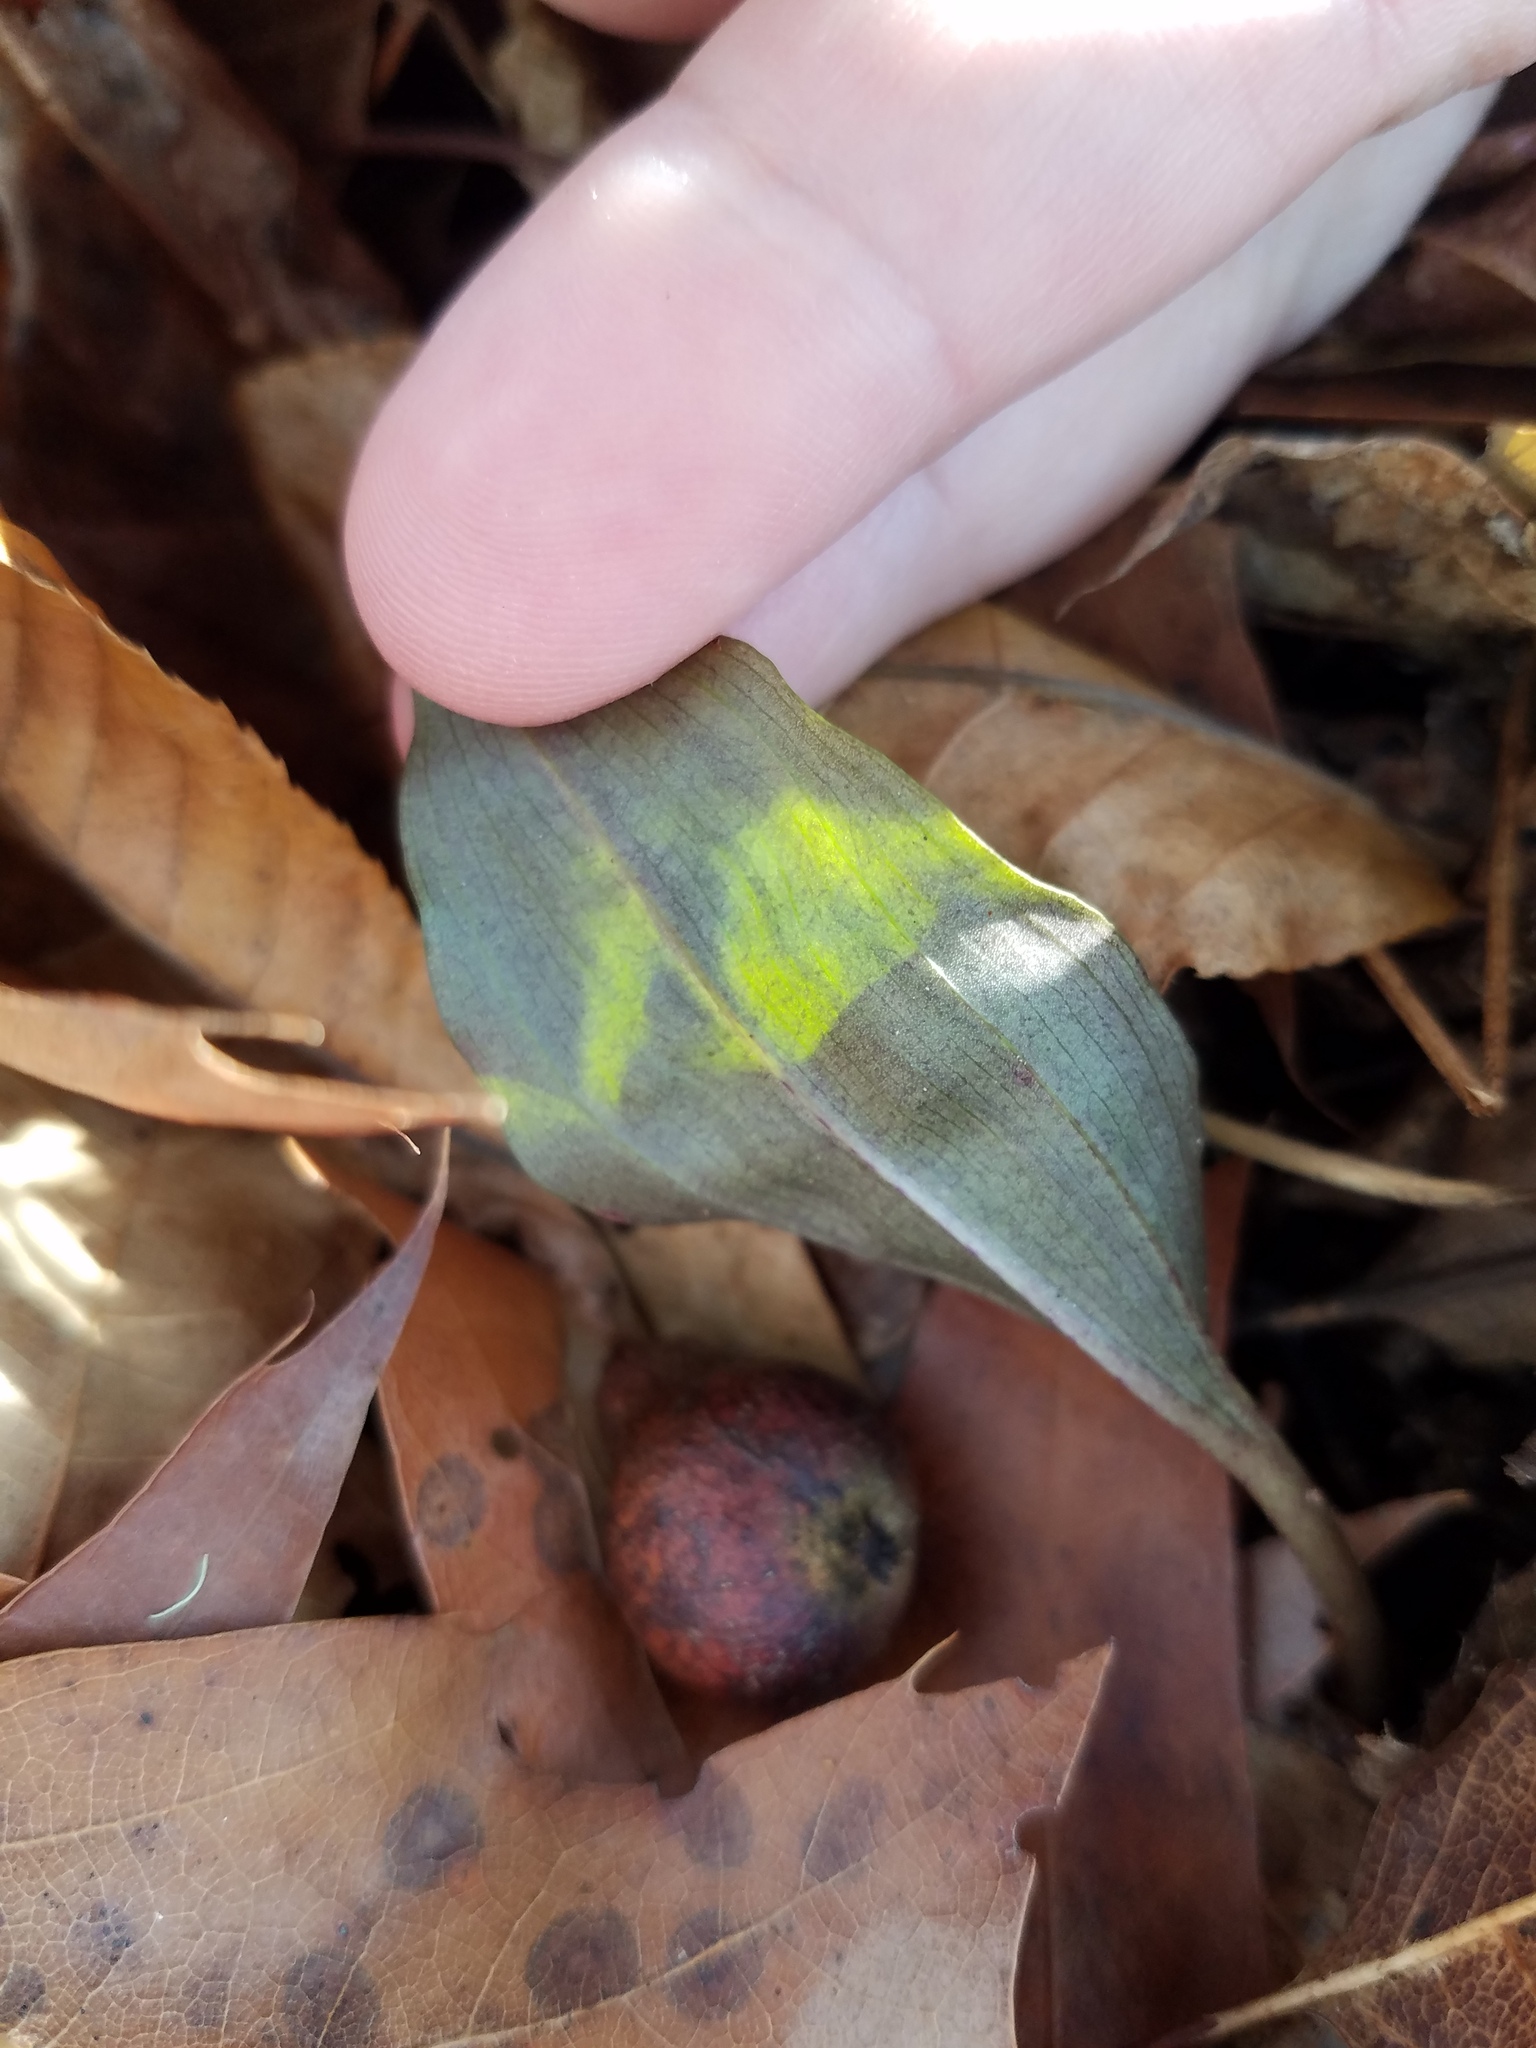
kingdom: Plantae
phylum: Tracheophyta
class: Liliopsida
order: Asparagales
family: Orchidaceae
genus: Tipularia
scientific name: Tipularia discolor
